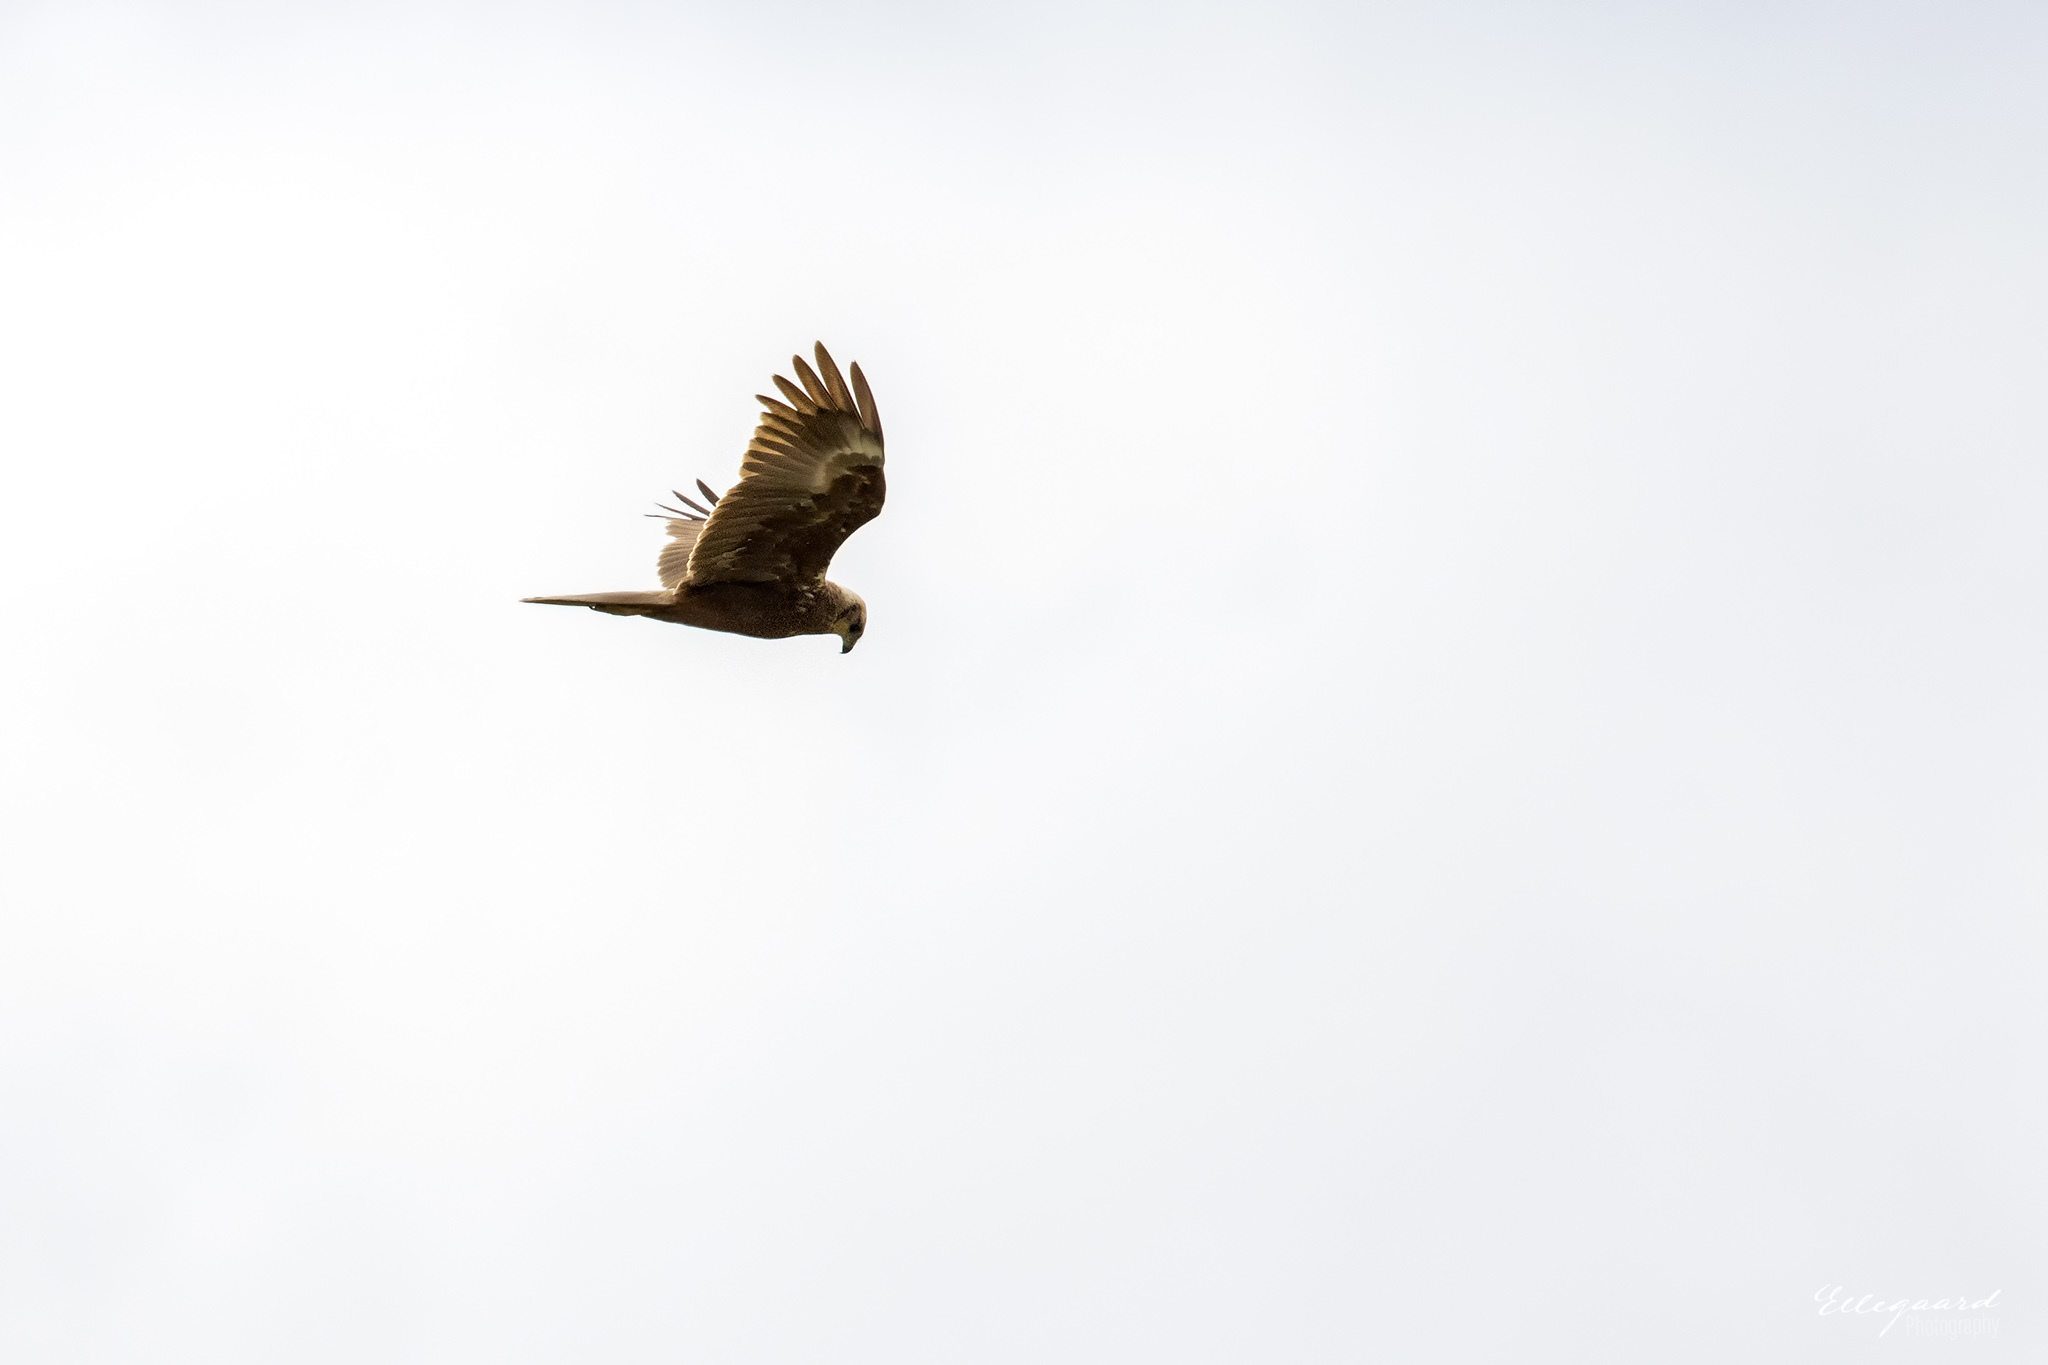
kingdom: Animalia
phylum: Chordata
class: Aves
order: Accipitriformes
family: Accipitridae
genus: Circus
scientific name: Circus aeruginosus
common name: Western marsh harrier
